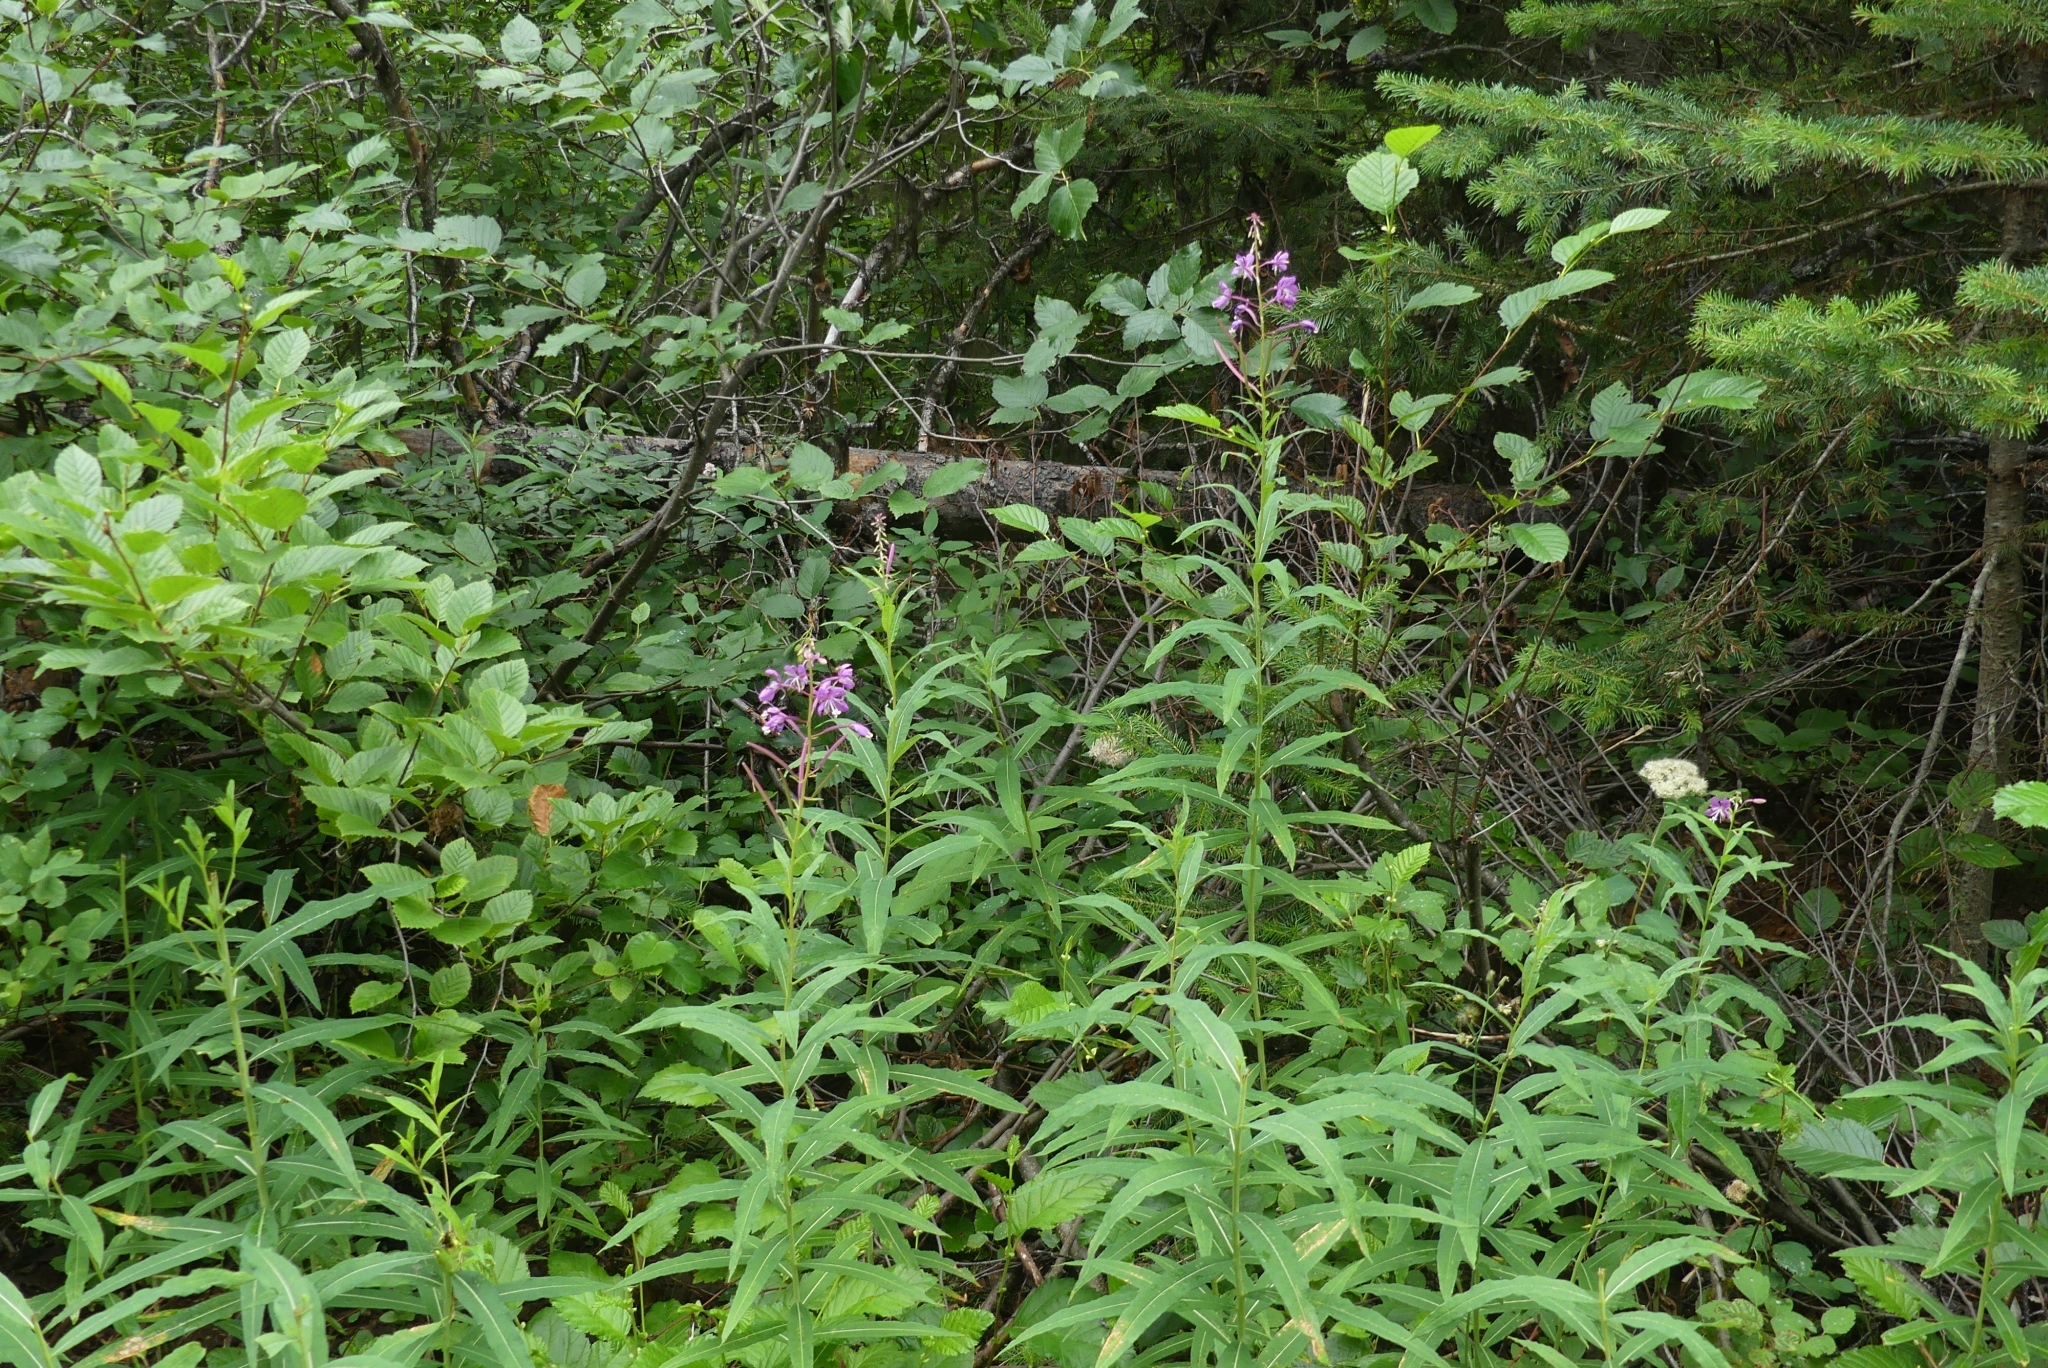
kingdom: Plantae
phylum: Tracheophyta
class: Magnoliopsida
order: Myrtales
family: Onagraceae
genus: Chamaenerion
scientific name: Chamaenerion angustifolium
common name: Fireweed
